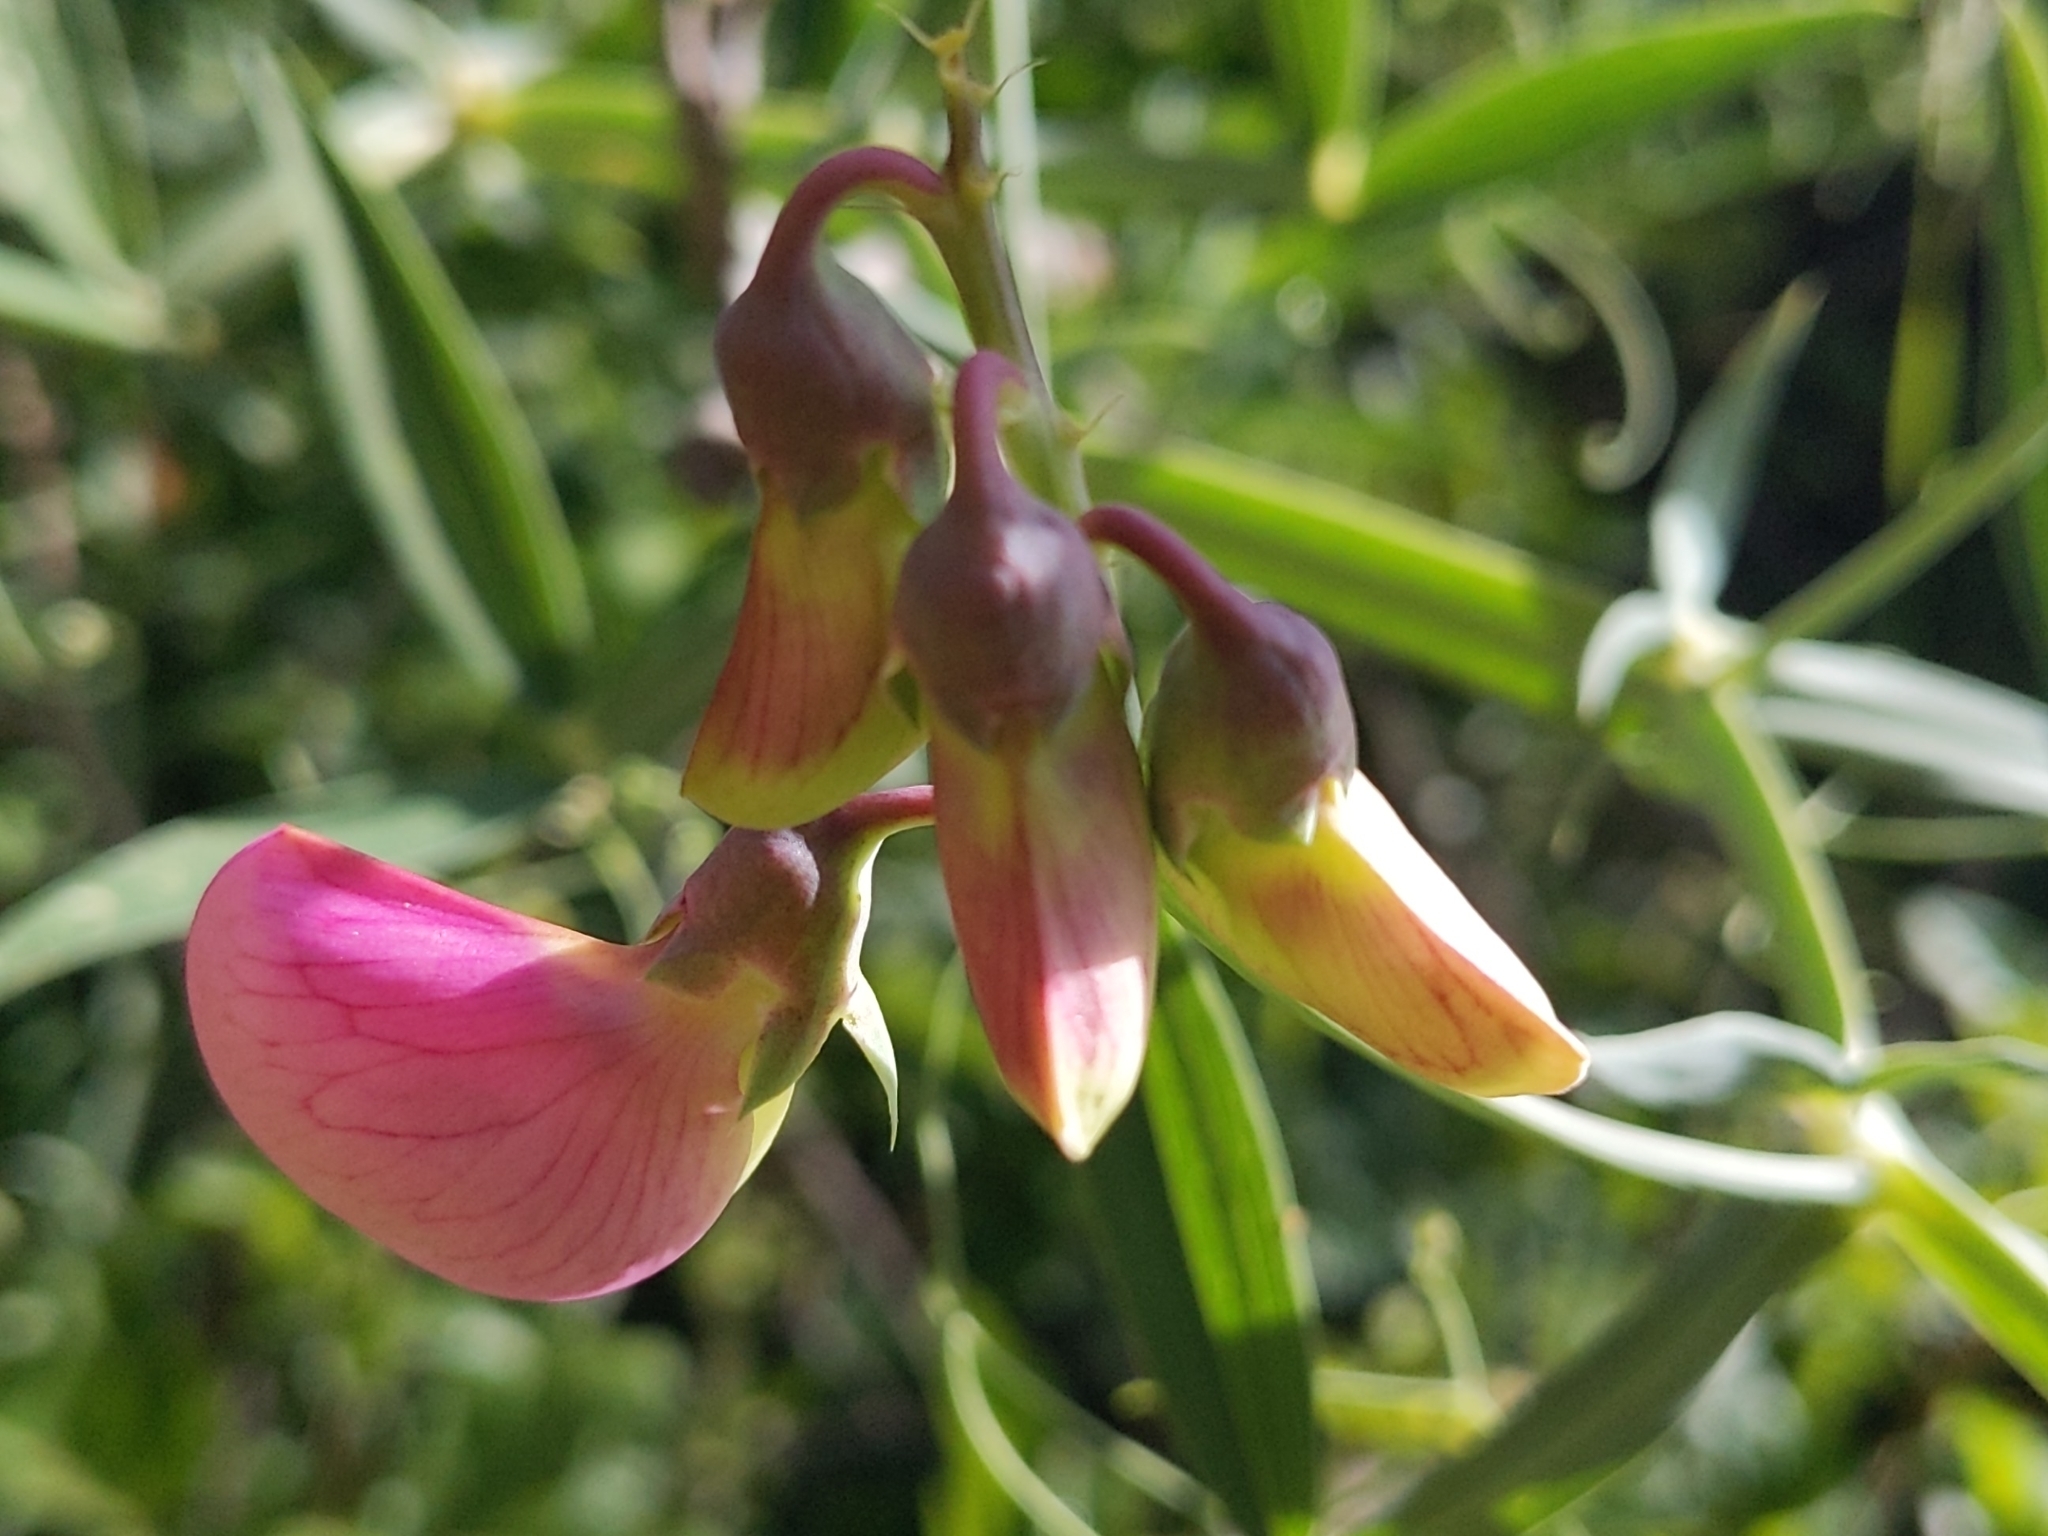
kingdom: Plantae
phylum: Tracheophyta
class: Magnoliopsida
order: Fabales
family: Fabaceae
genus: Lathyrus
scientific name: Lathyrus latifolius
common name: Perennial pea
